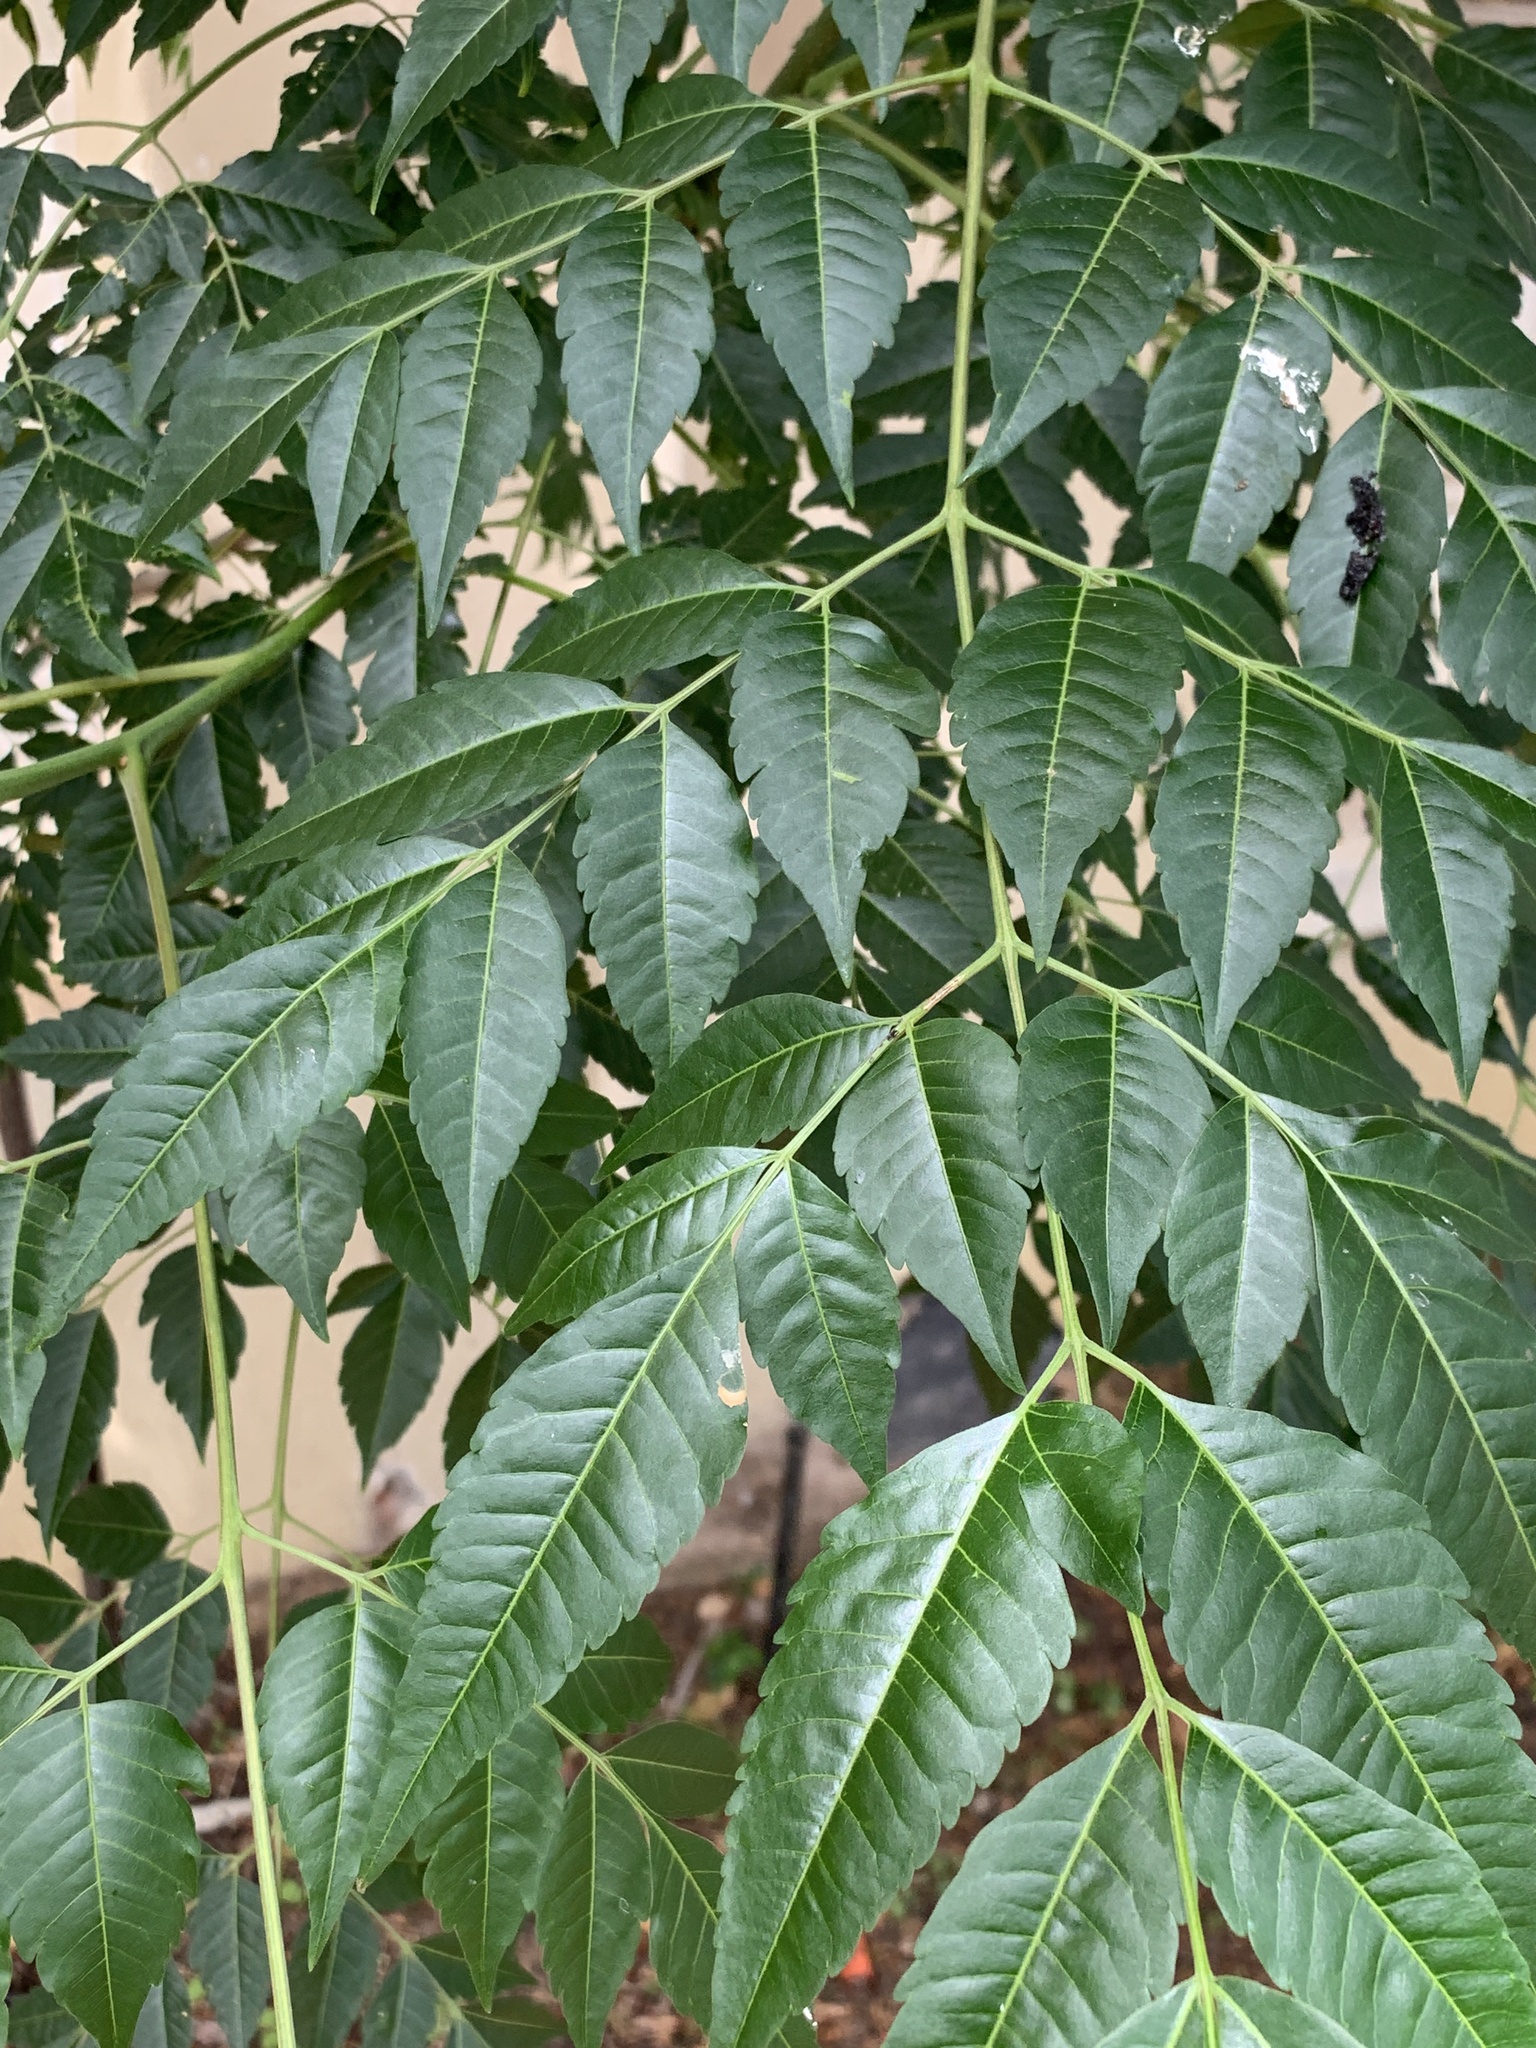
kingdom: Plantae
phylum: Tracheophyta
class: Magnoliopsida
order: Sapindales
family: Meliaceae
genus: Melia
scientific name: Melia azedarach
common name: Chinaberrytree
